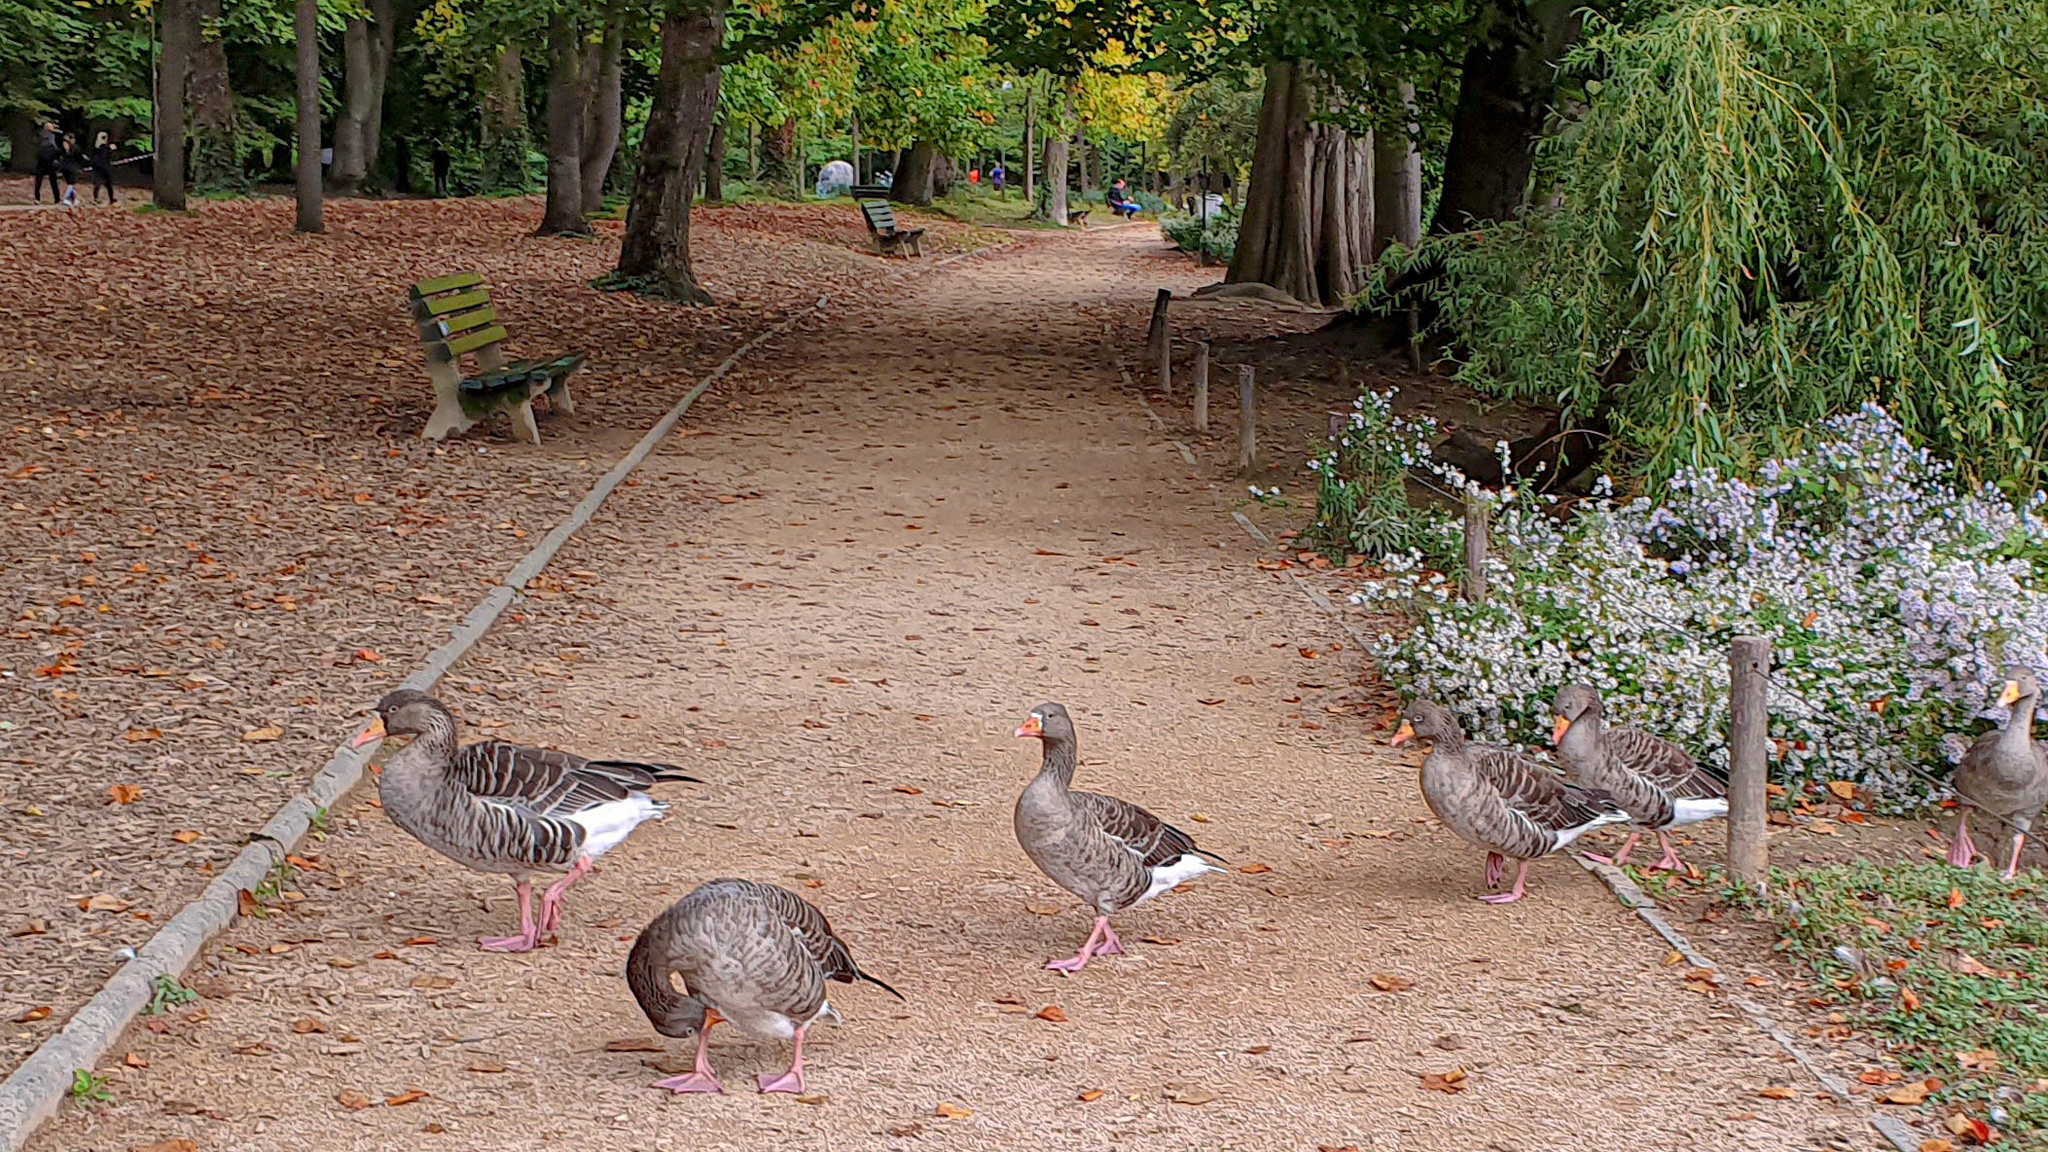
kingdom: Animalia
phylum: Chordata
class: Aves
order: Anseriformes
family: Anatidae
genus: Anser
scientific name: Anser anser
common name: Greylag goose
